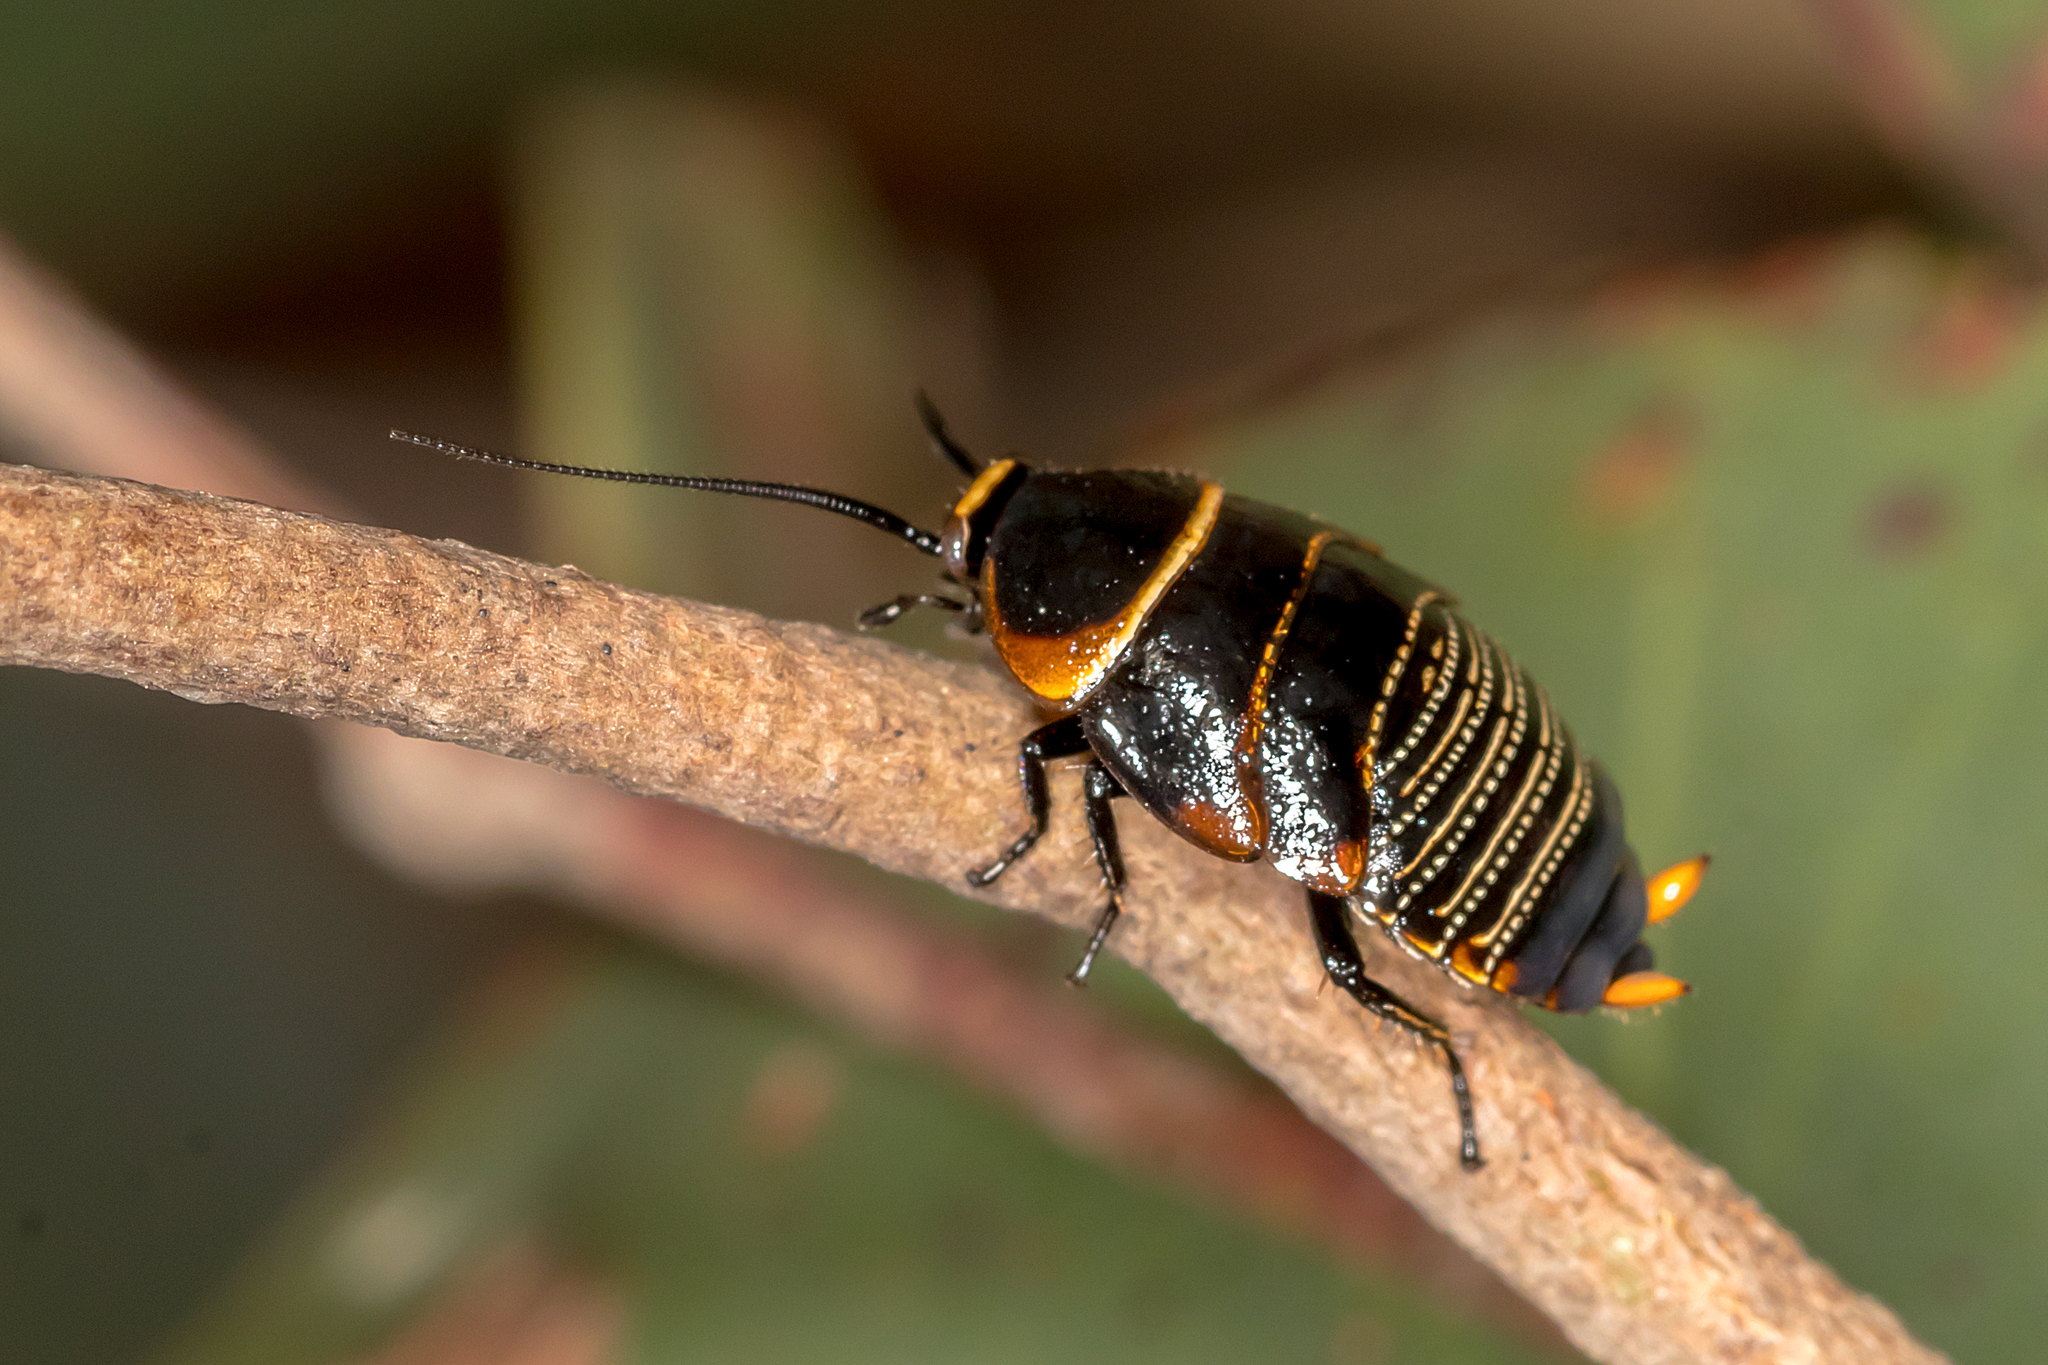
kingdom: Animalia
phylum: Arthropoda
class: Insecta
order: Blattodea
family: Ectobiidae
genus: Ellipsidion
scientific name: Ellipsidion australe
